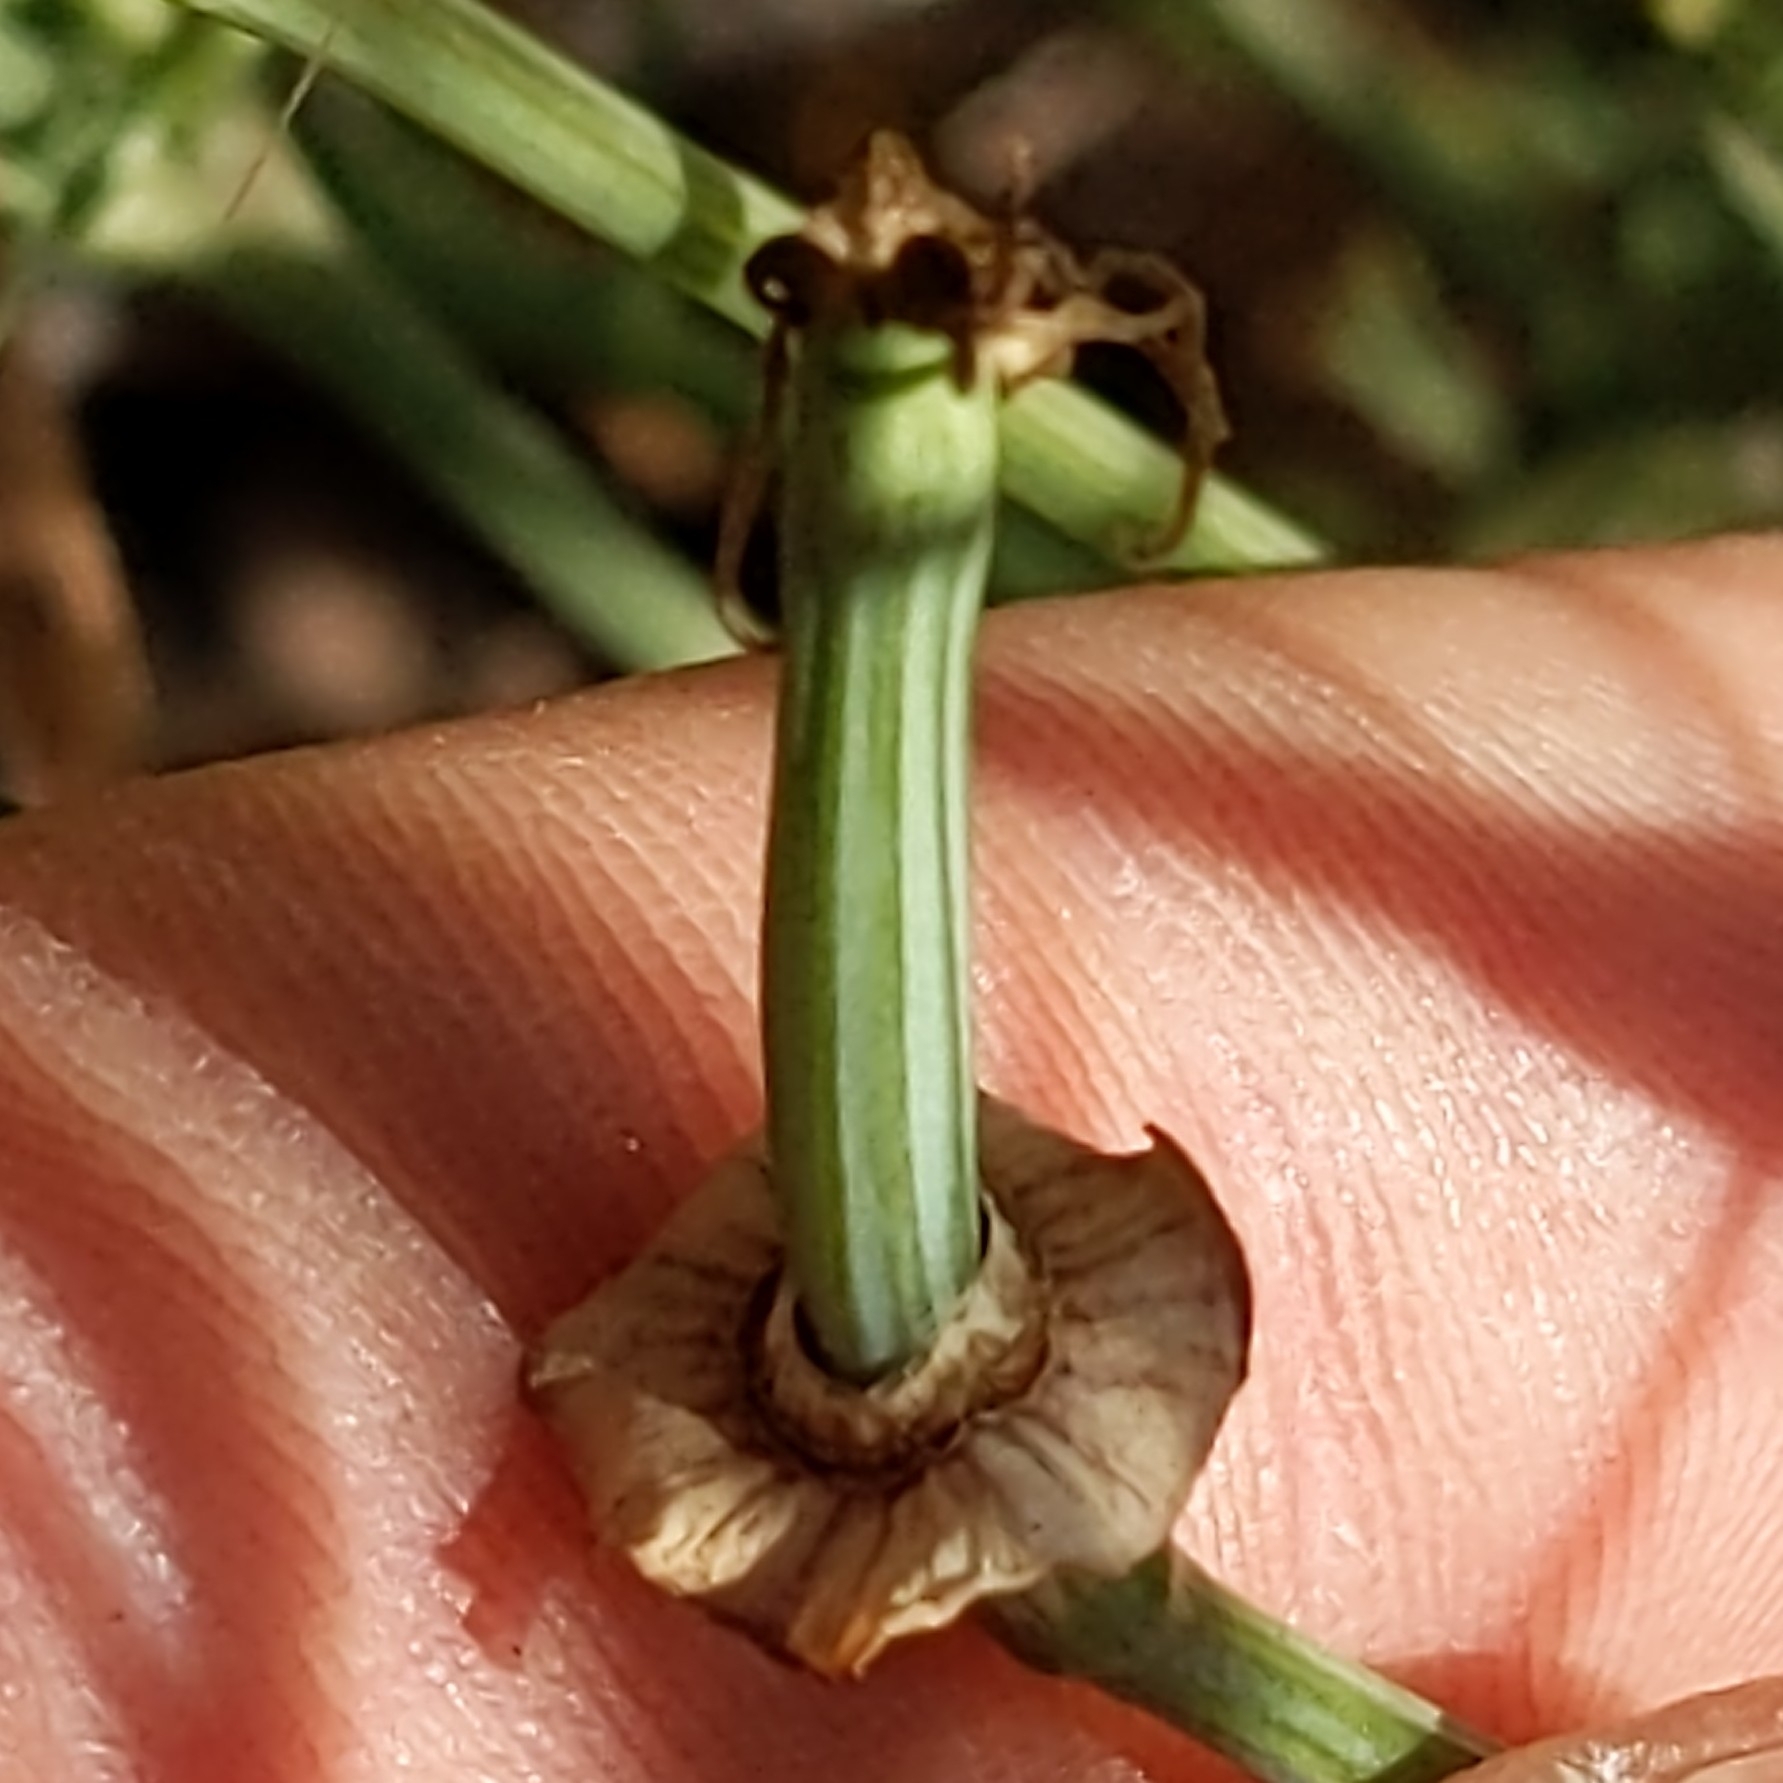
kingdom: Plantae
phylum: Tracheophyta
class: Magnoliopsida
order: Ranunculales
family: Papaveraceae
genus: Eschscholzia
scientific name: Eschscholzia californica
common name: California poppy
